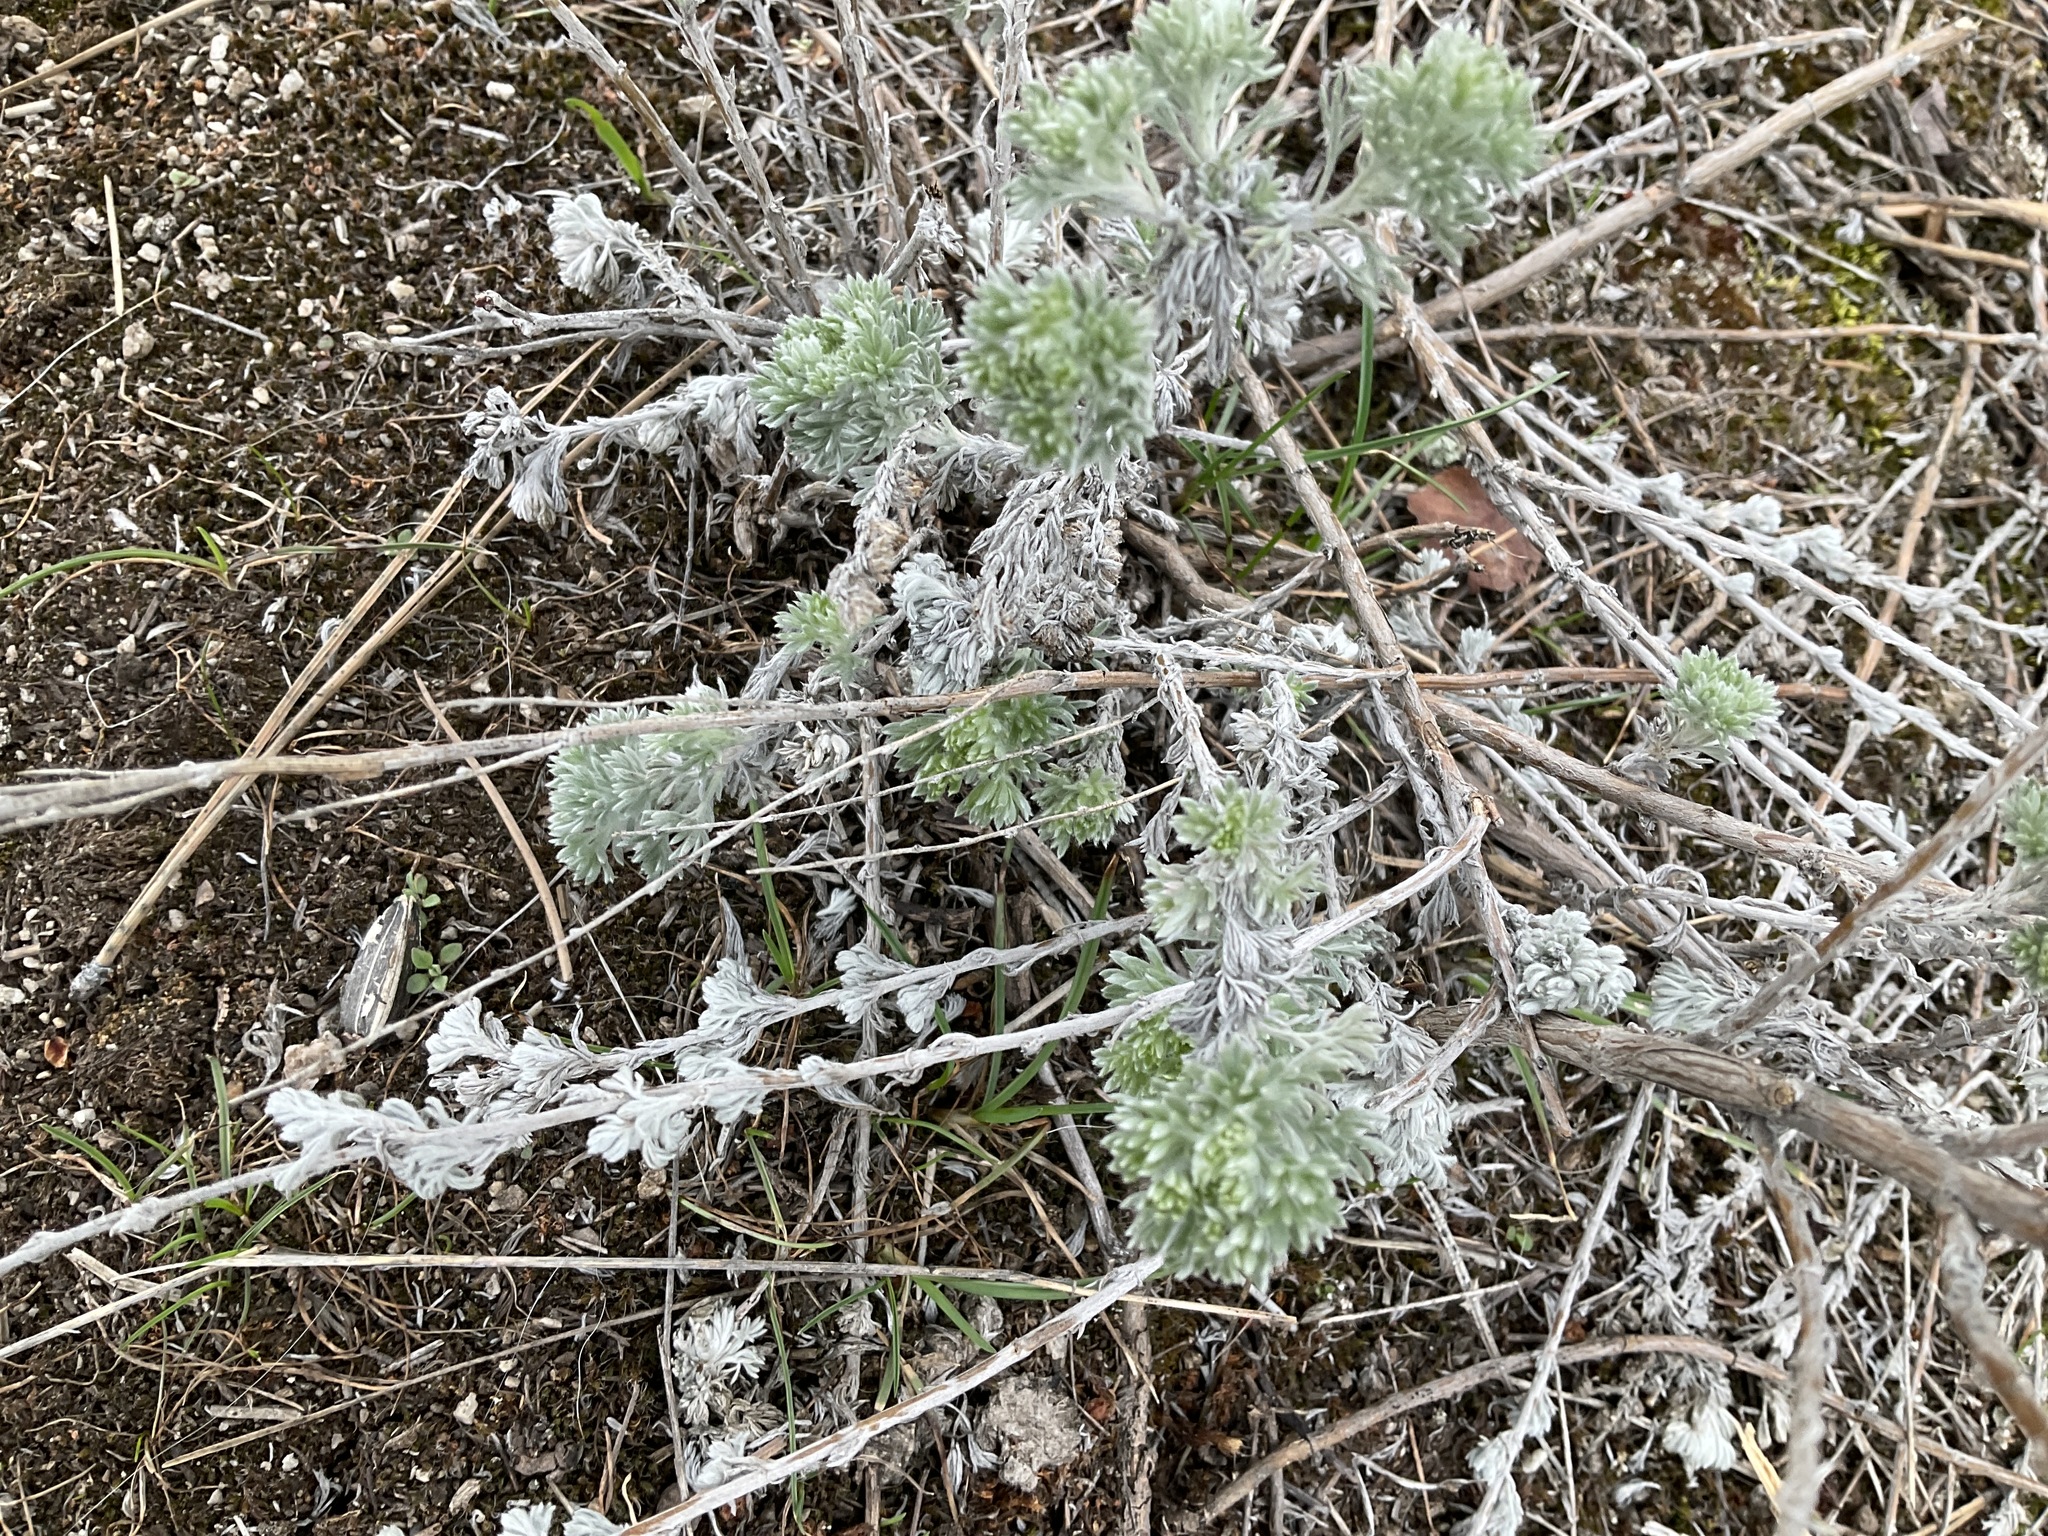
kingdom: Plantae
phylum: Tracheophyta
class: Magnoliopsida
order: Asterales
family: Asteraceae
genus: Artemisia
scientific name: Artemisia frigida
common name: Prairie sagewort
